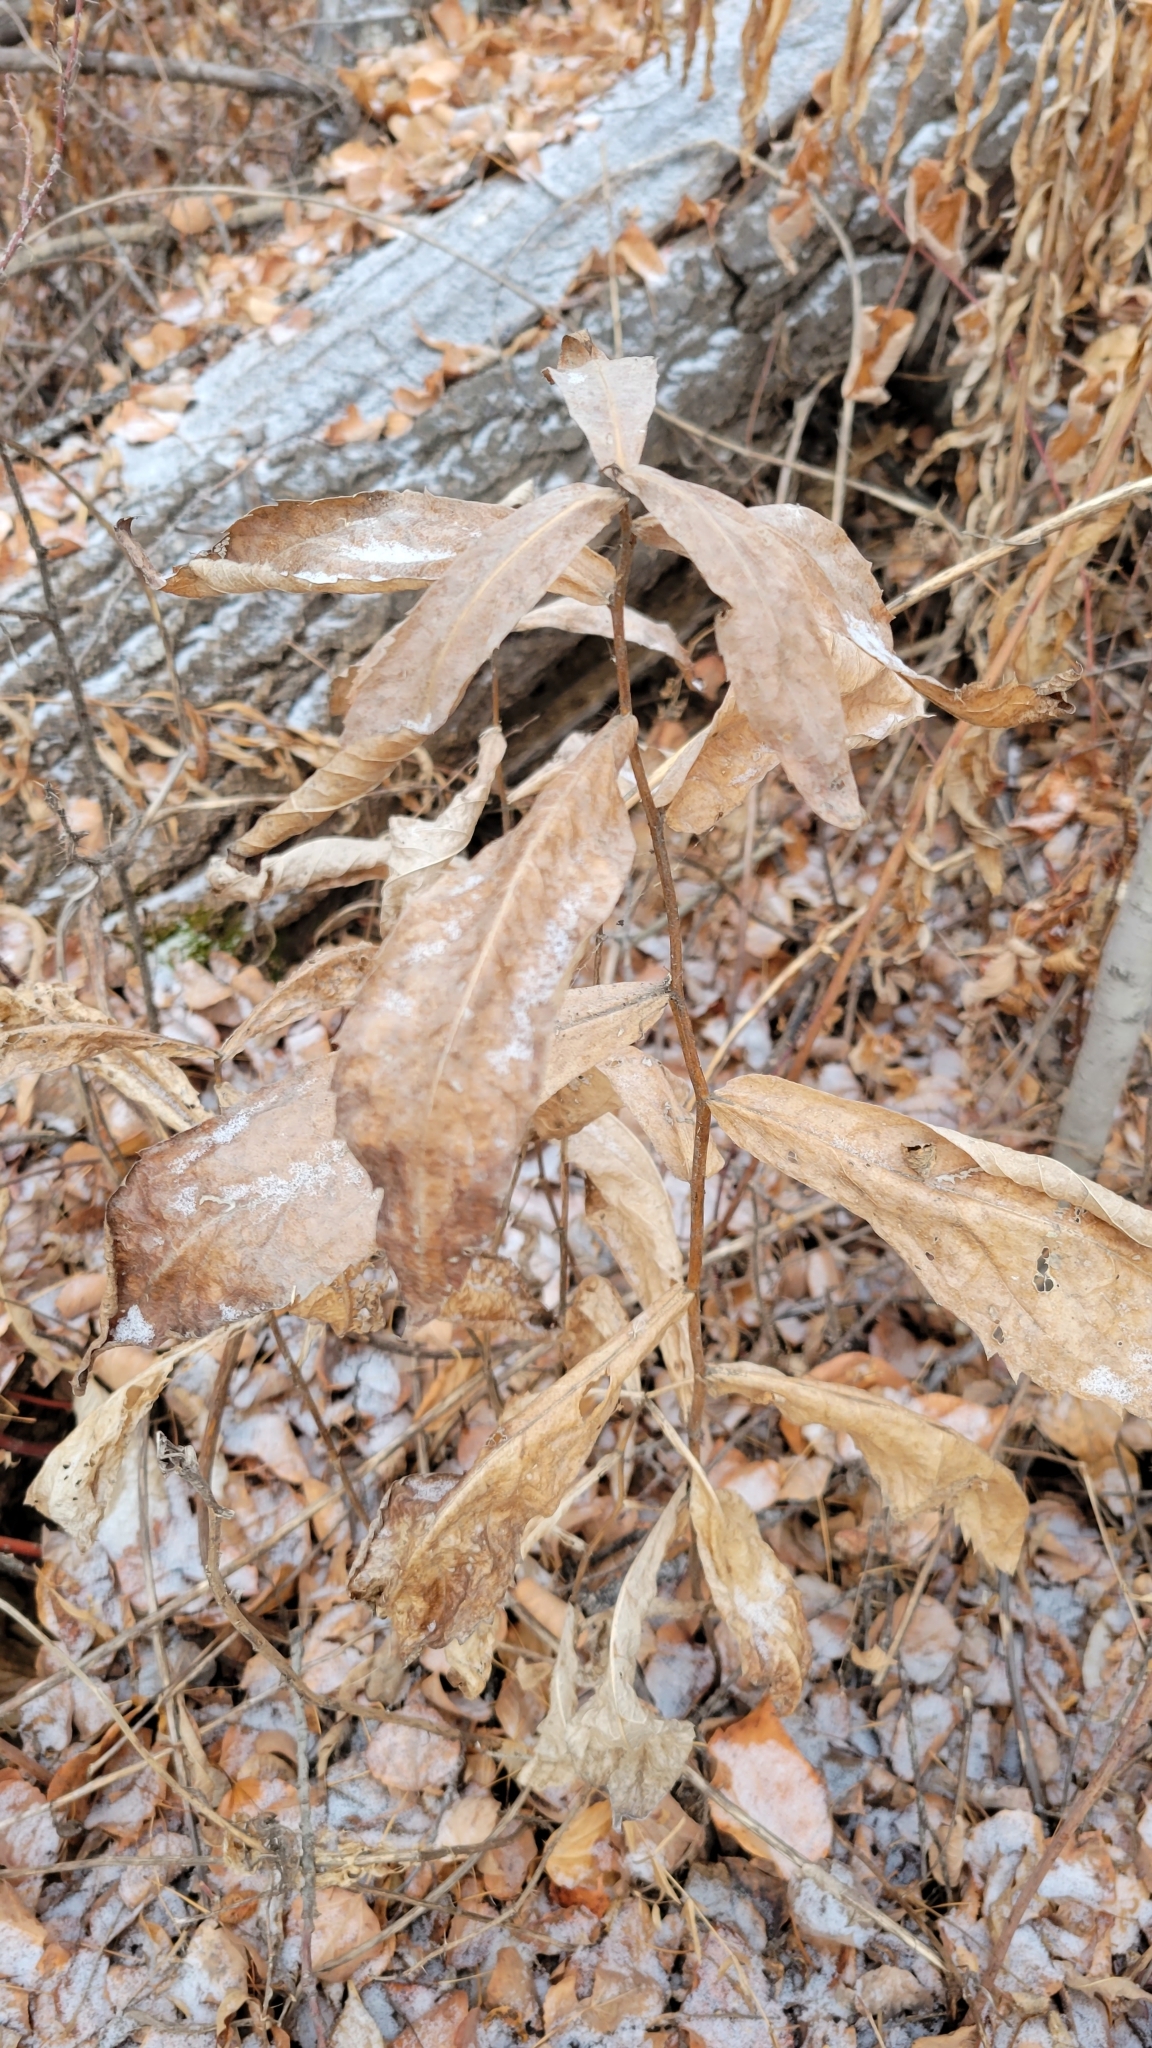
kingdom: Plantae
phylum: Tracheophyta
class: Magnoliopsida
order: Asterales
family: Asteraceae
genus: Eurybia
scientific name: Eurybia conspicua
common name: Showy aster
